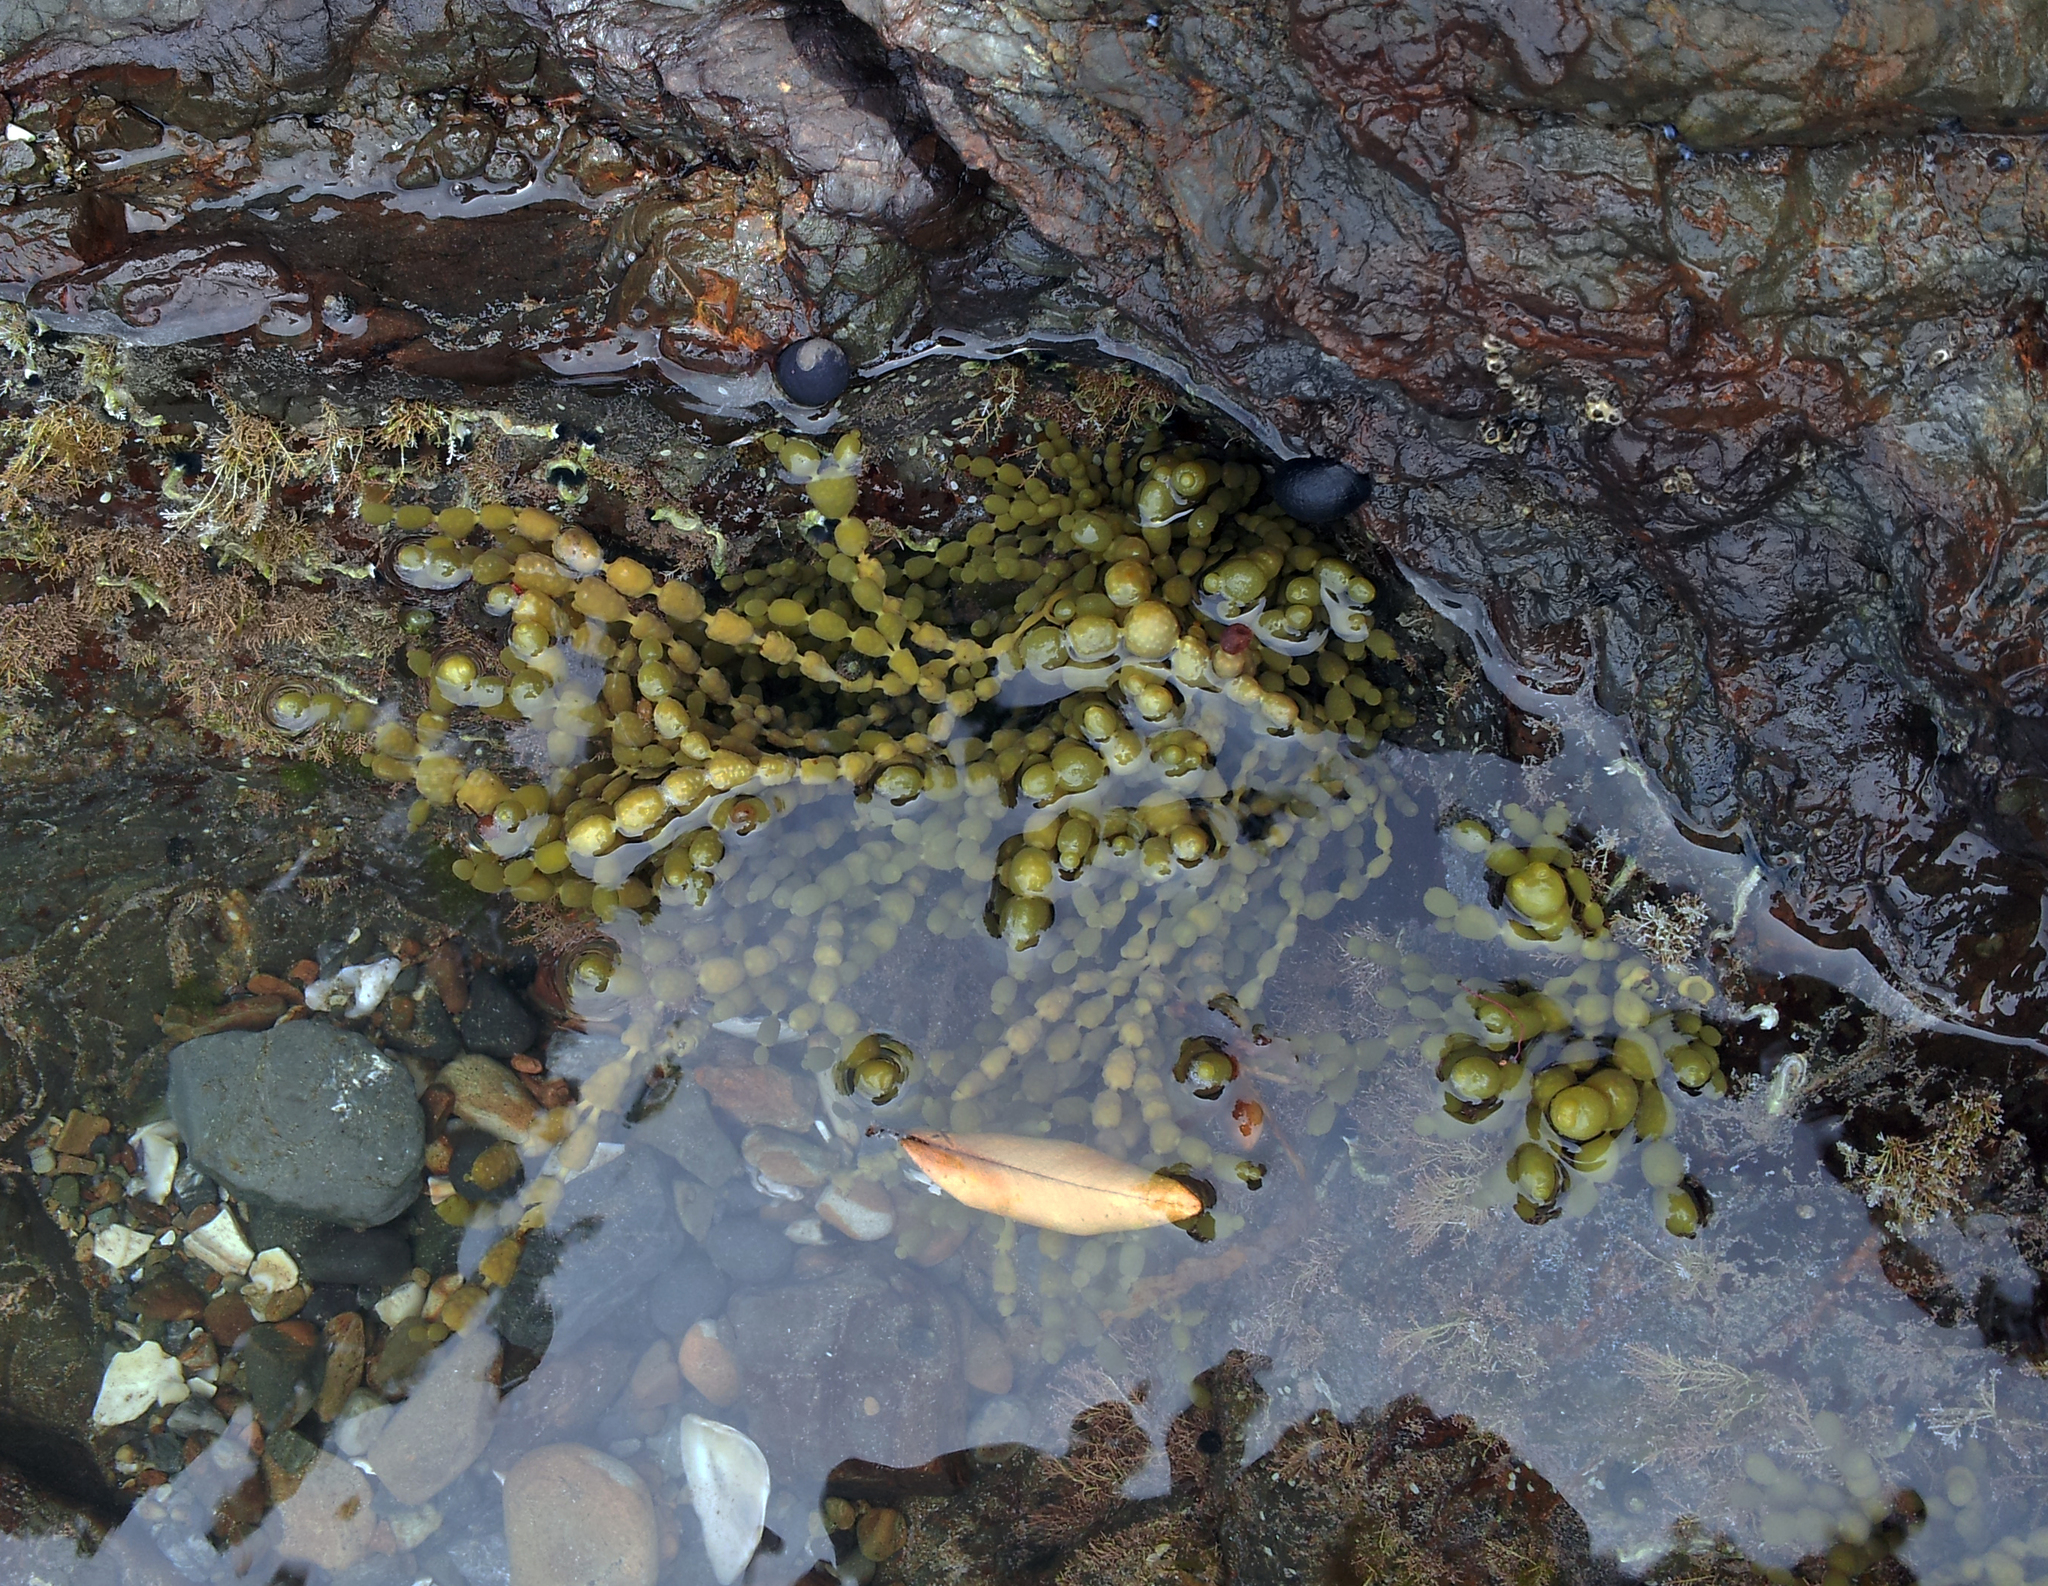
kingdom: Chromista
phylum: Ochrophyta
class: Phaeophyceae
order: Fucales
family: Hormosiraceae
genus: Hormosira
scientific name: Hormosira banksii
